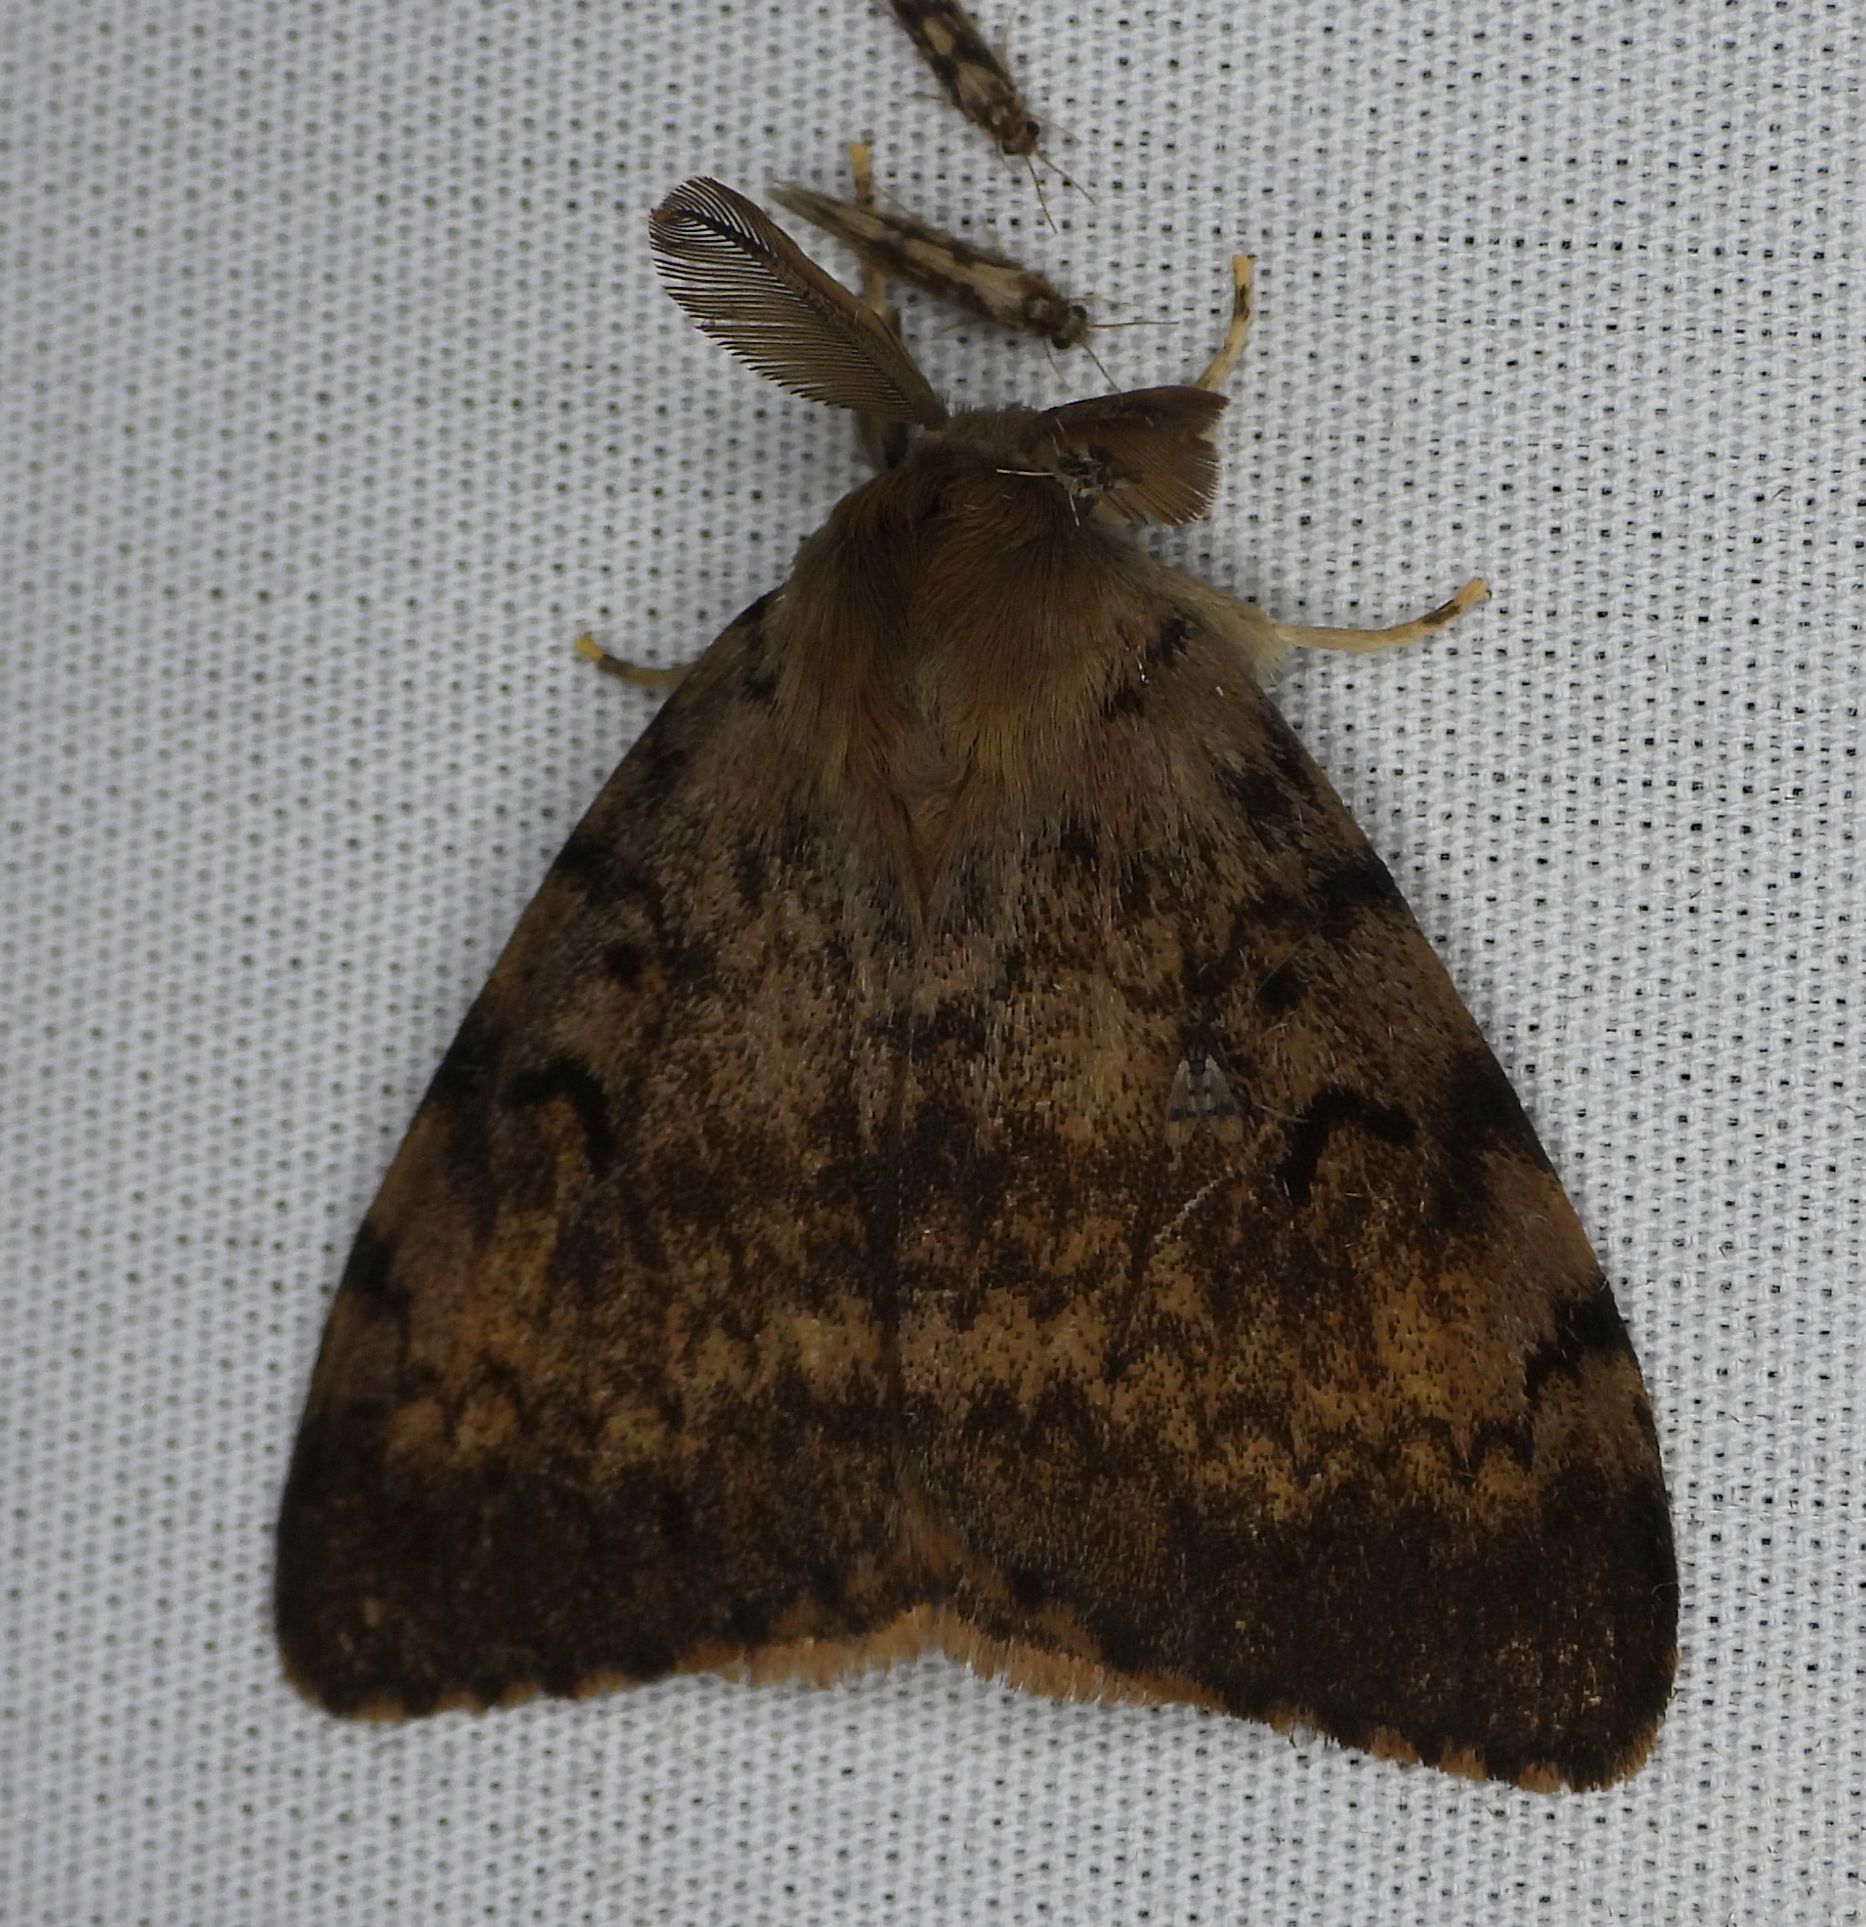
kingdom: Animalia
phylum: Arthropoda
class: Insecta
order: Lepidoptera
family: Erebidae
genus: Lymantria
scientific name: Lymantria dispar
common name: Gypsy moth
